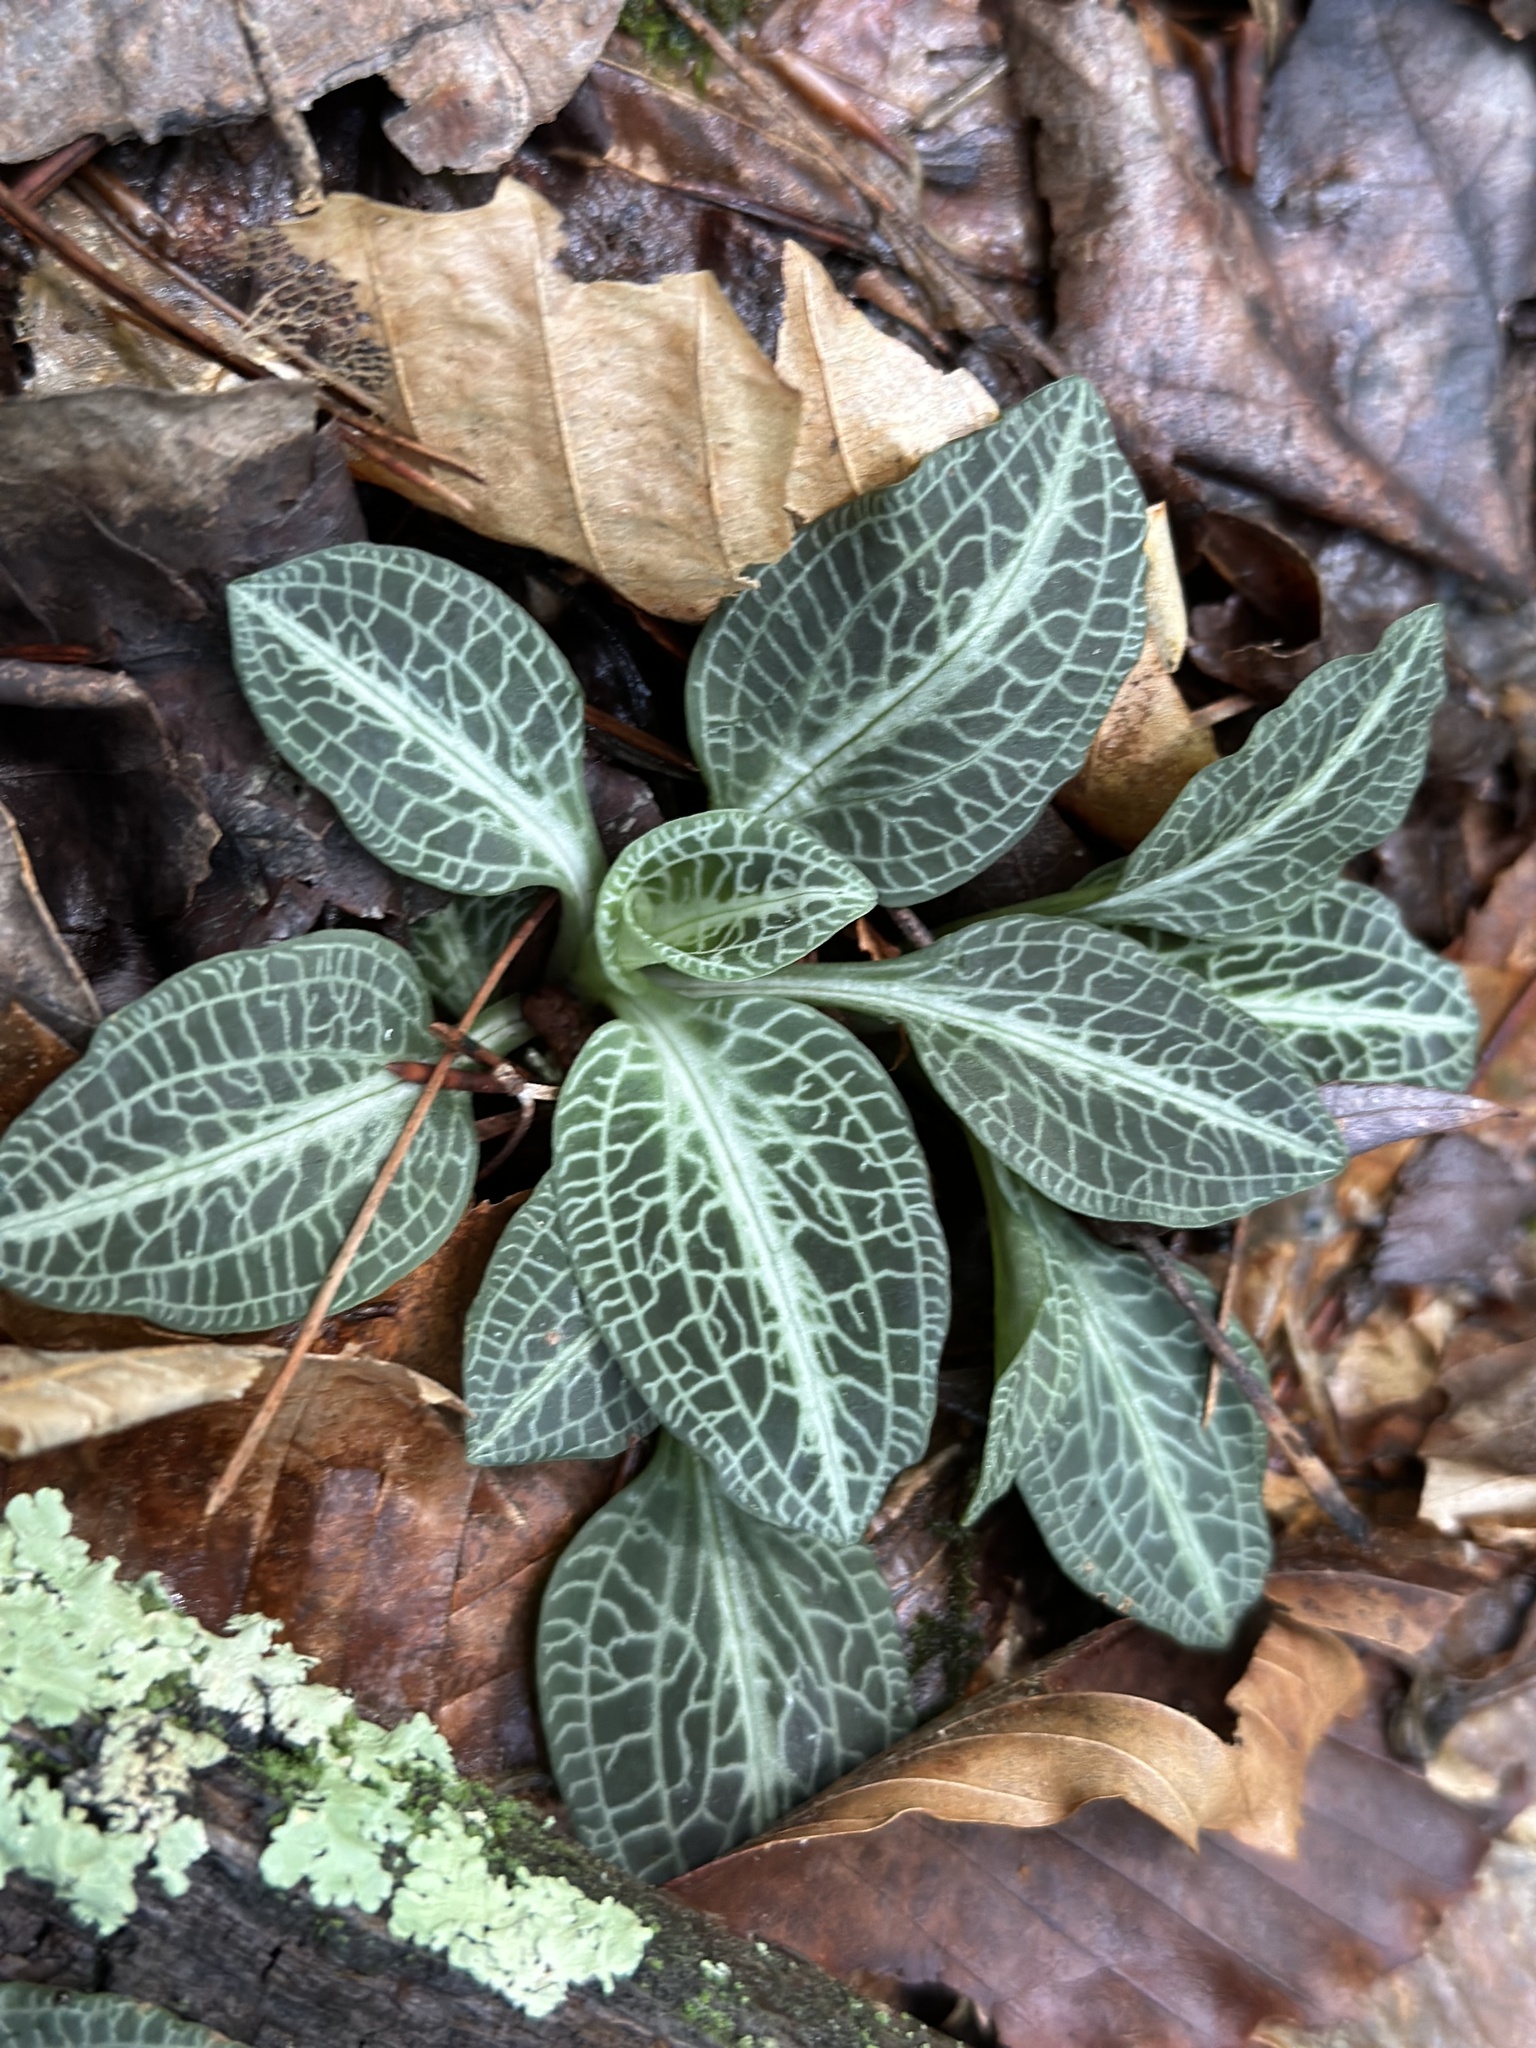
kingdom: Plantae
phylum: Tracheophyta
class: Liliopsida
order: Asparagales
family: Orchidaceae
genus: Goodyera
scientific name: Goodyera pubescens
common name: Downy rattlesnake-plantain
